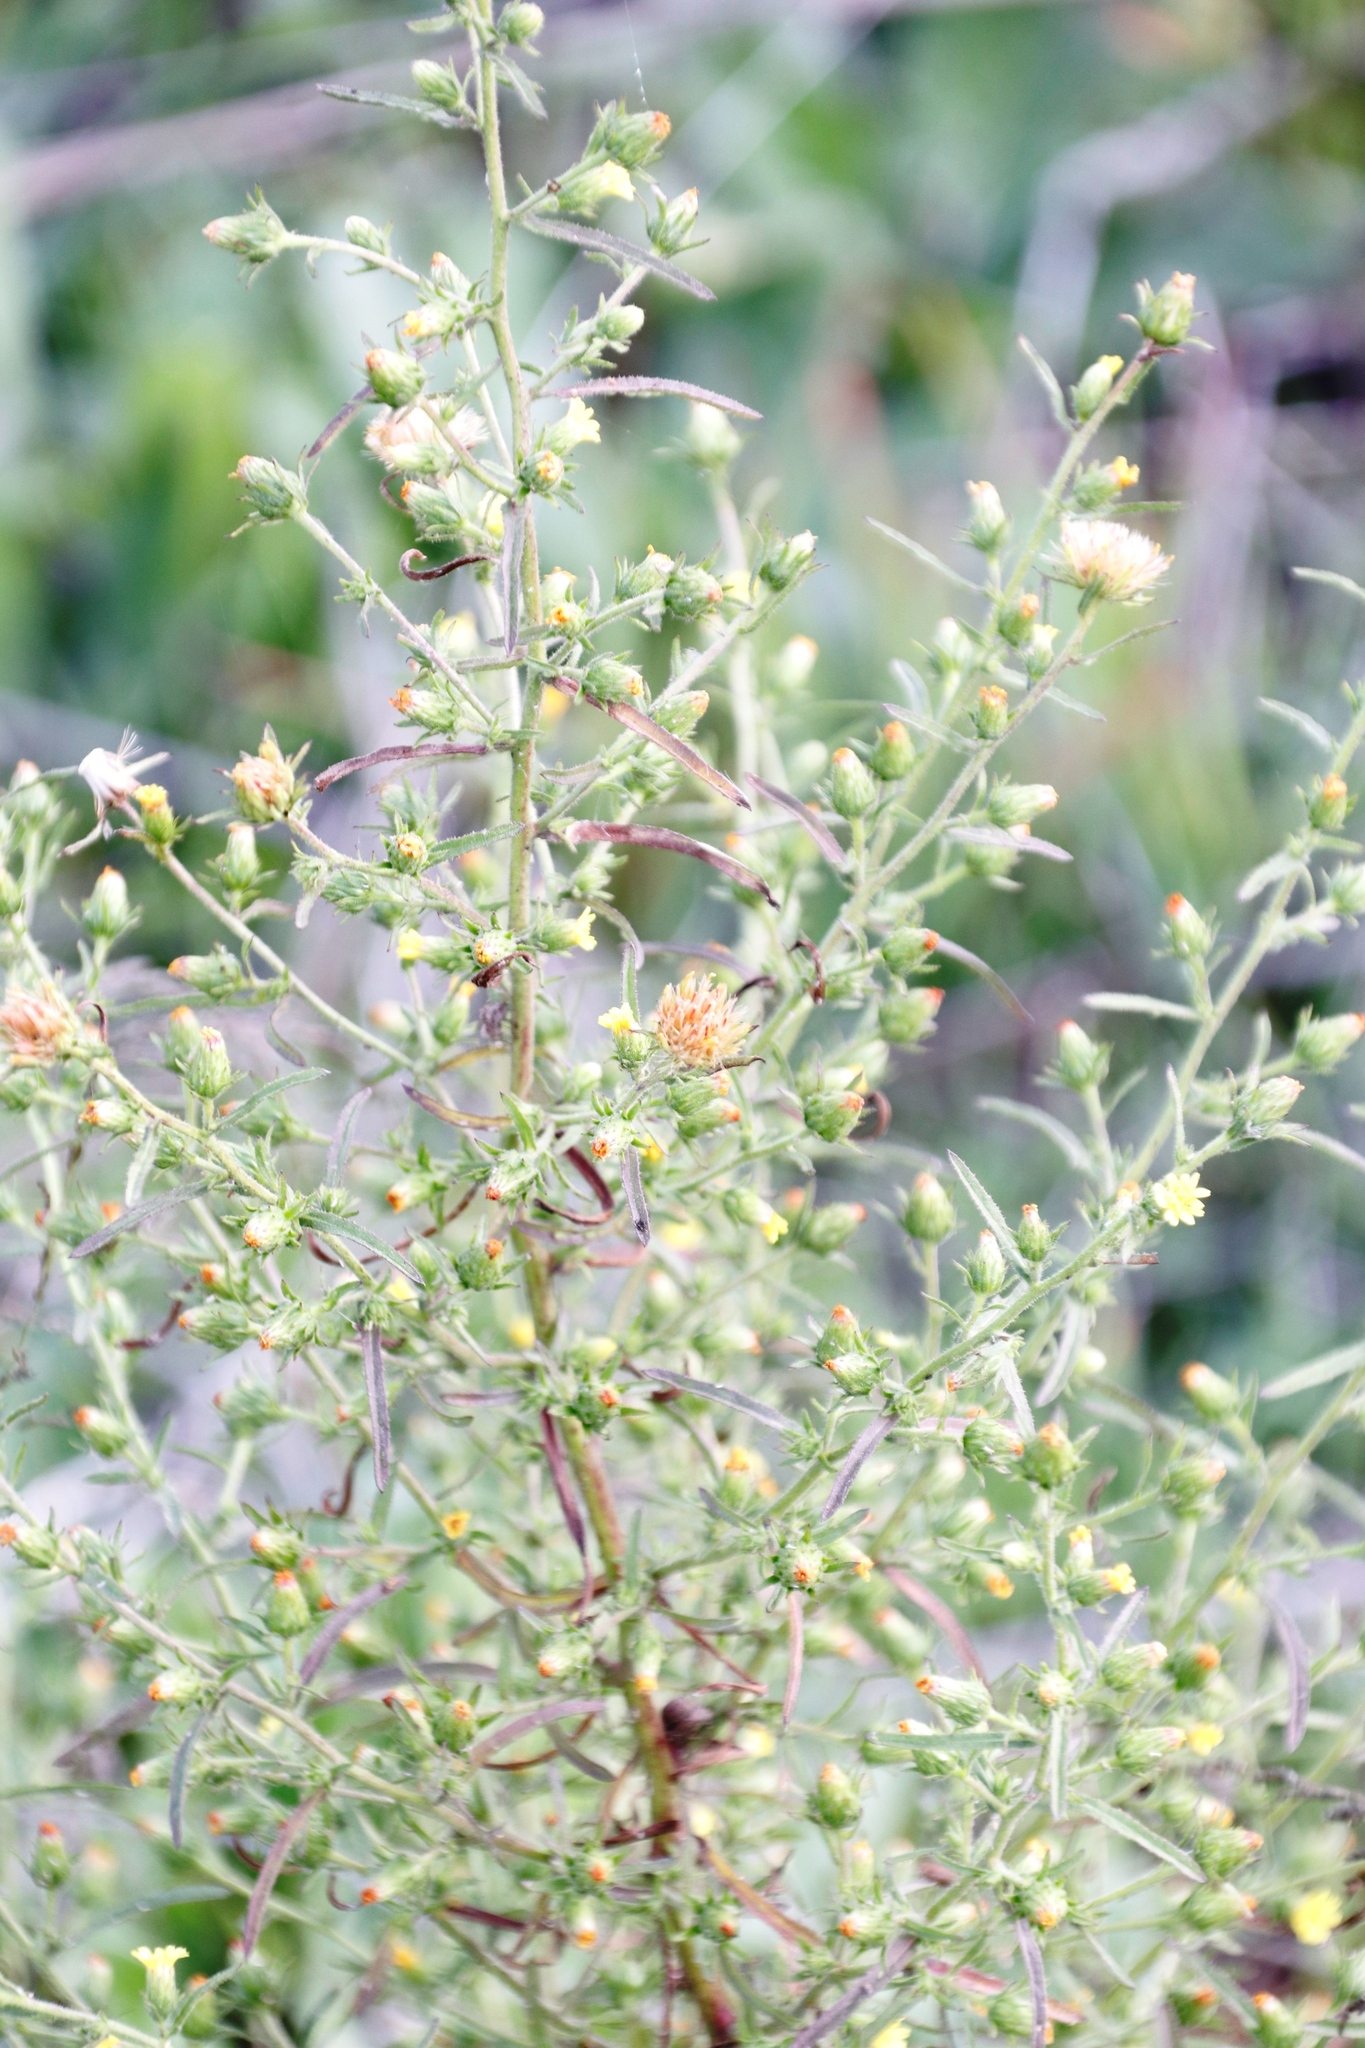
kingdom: Plantae
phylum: Tracheophyta
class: Magnoliopsida
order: Asterales
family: Asteraceae
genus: Dittrichia
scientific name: Dittrichia graveolens
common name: Stinking fleabane
